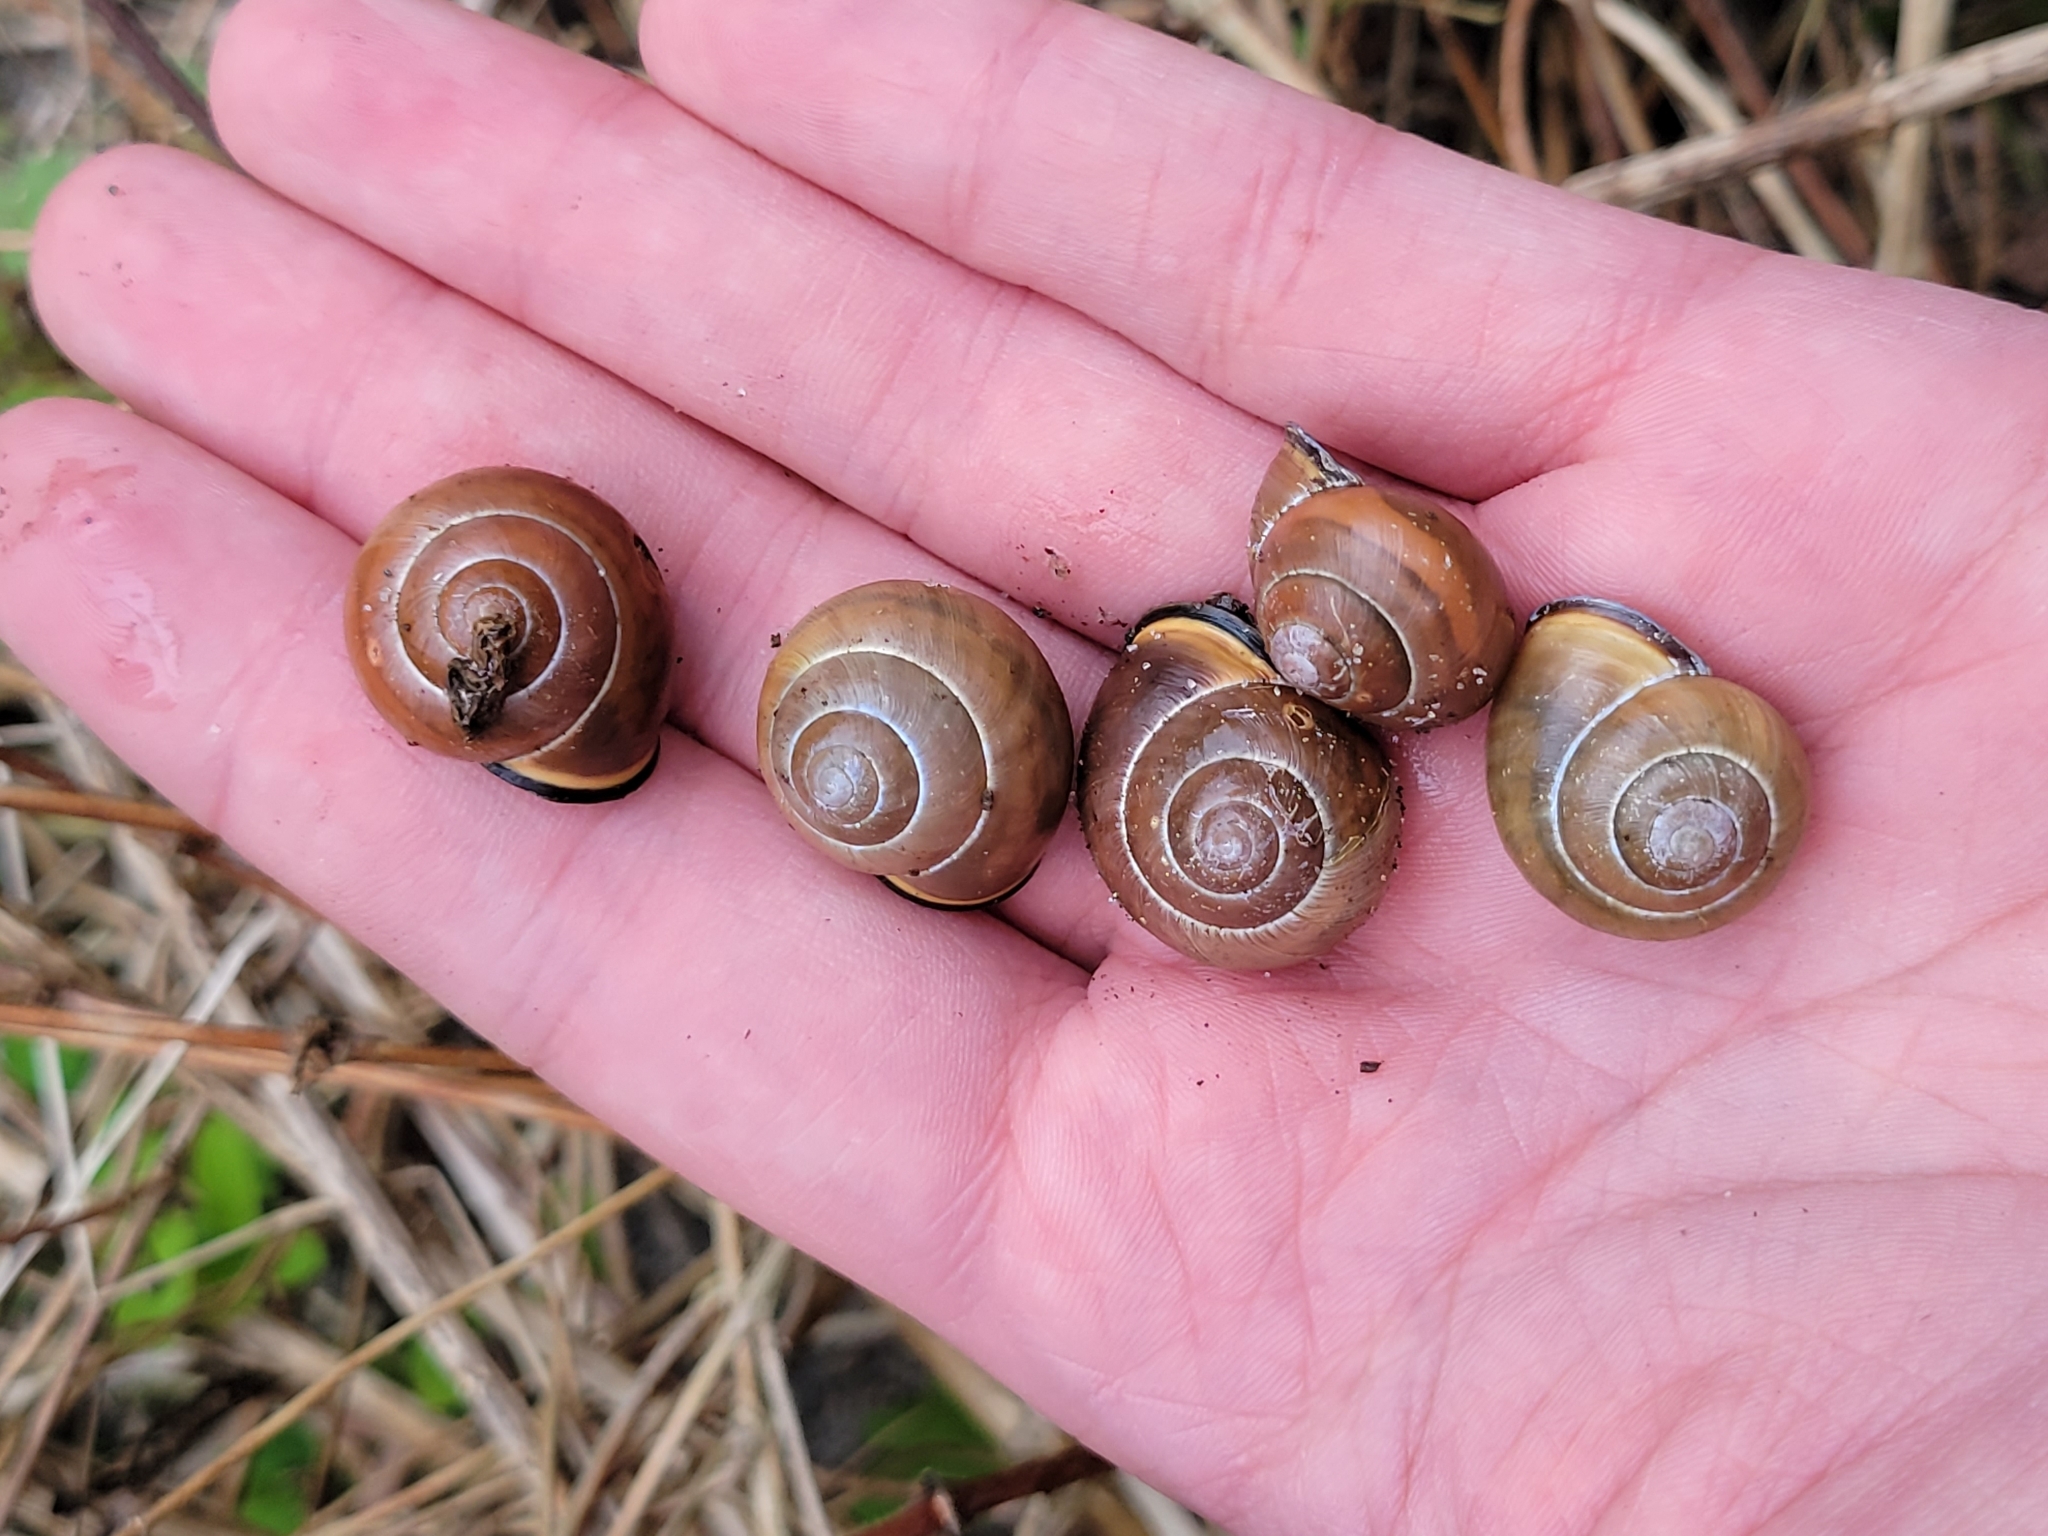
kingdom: Animalia
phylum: Mollusca
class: Gastropoda
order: Stylommatophora
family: Helicidae
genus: Cepaea
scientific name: Cepaea nemoralis
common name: Grovesnail
